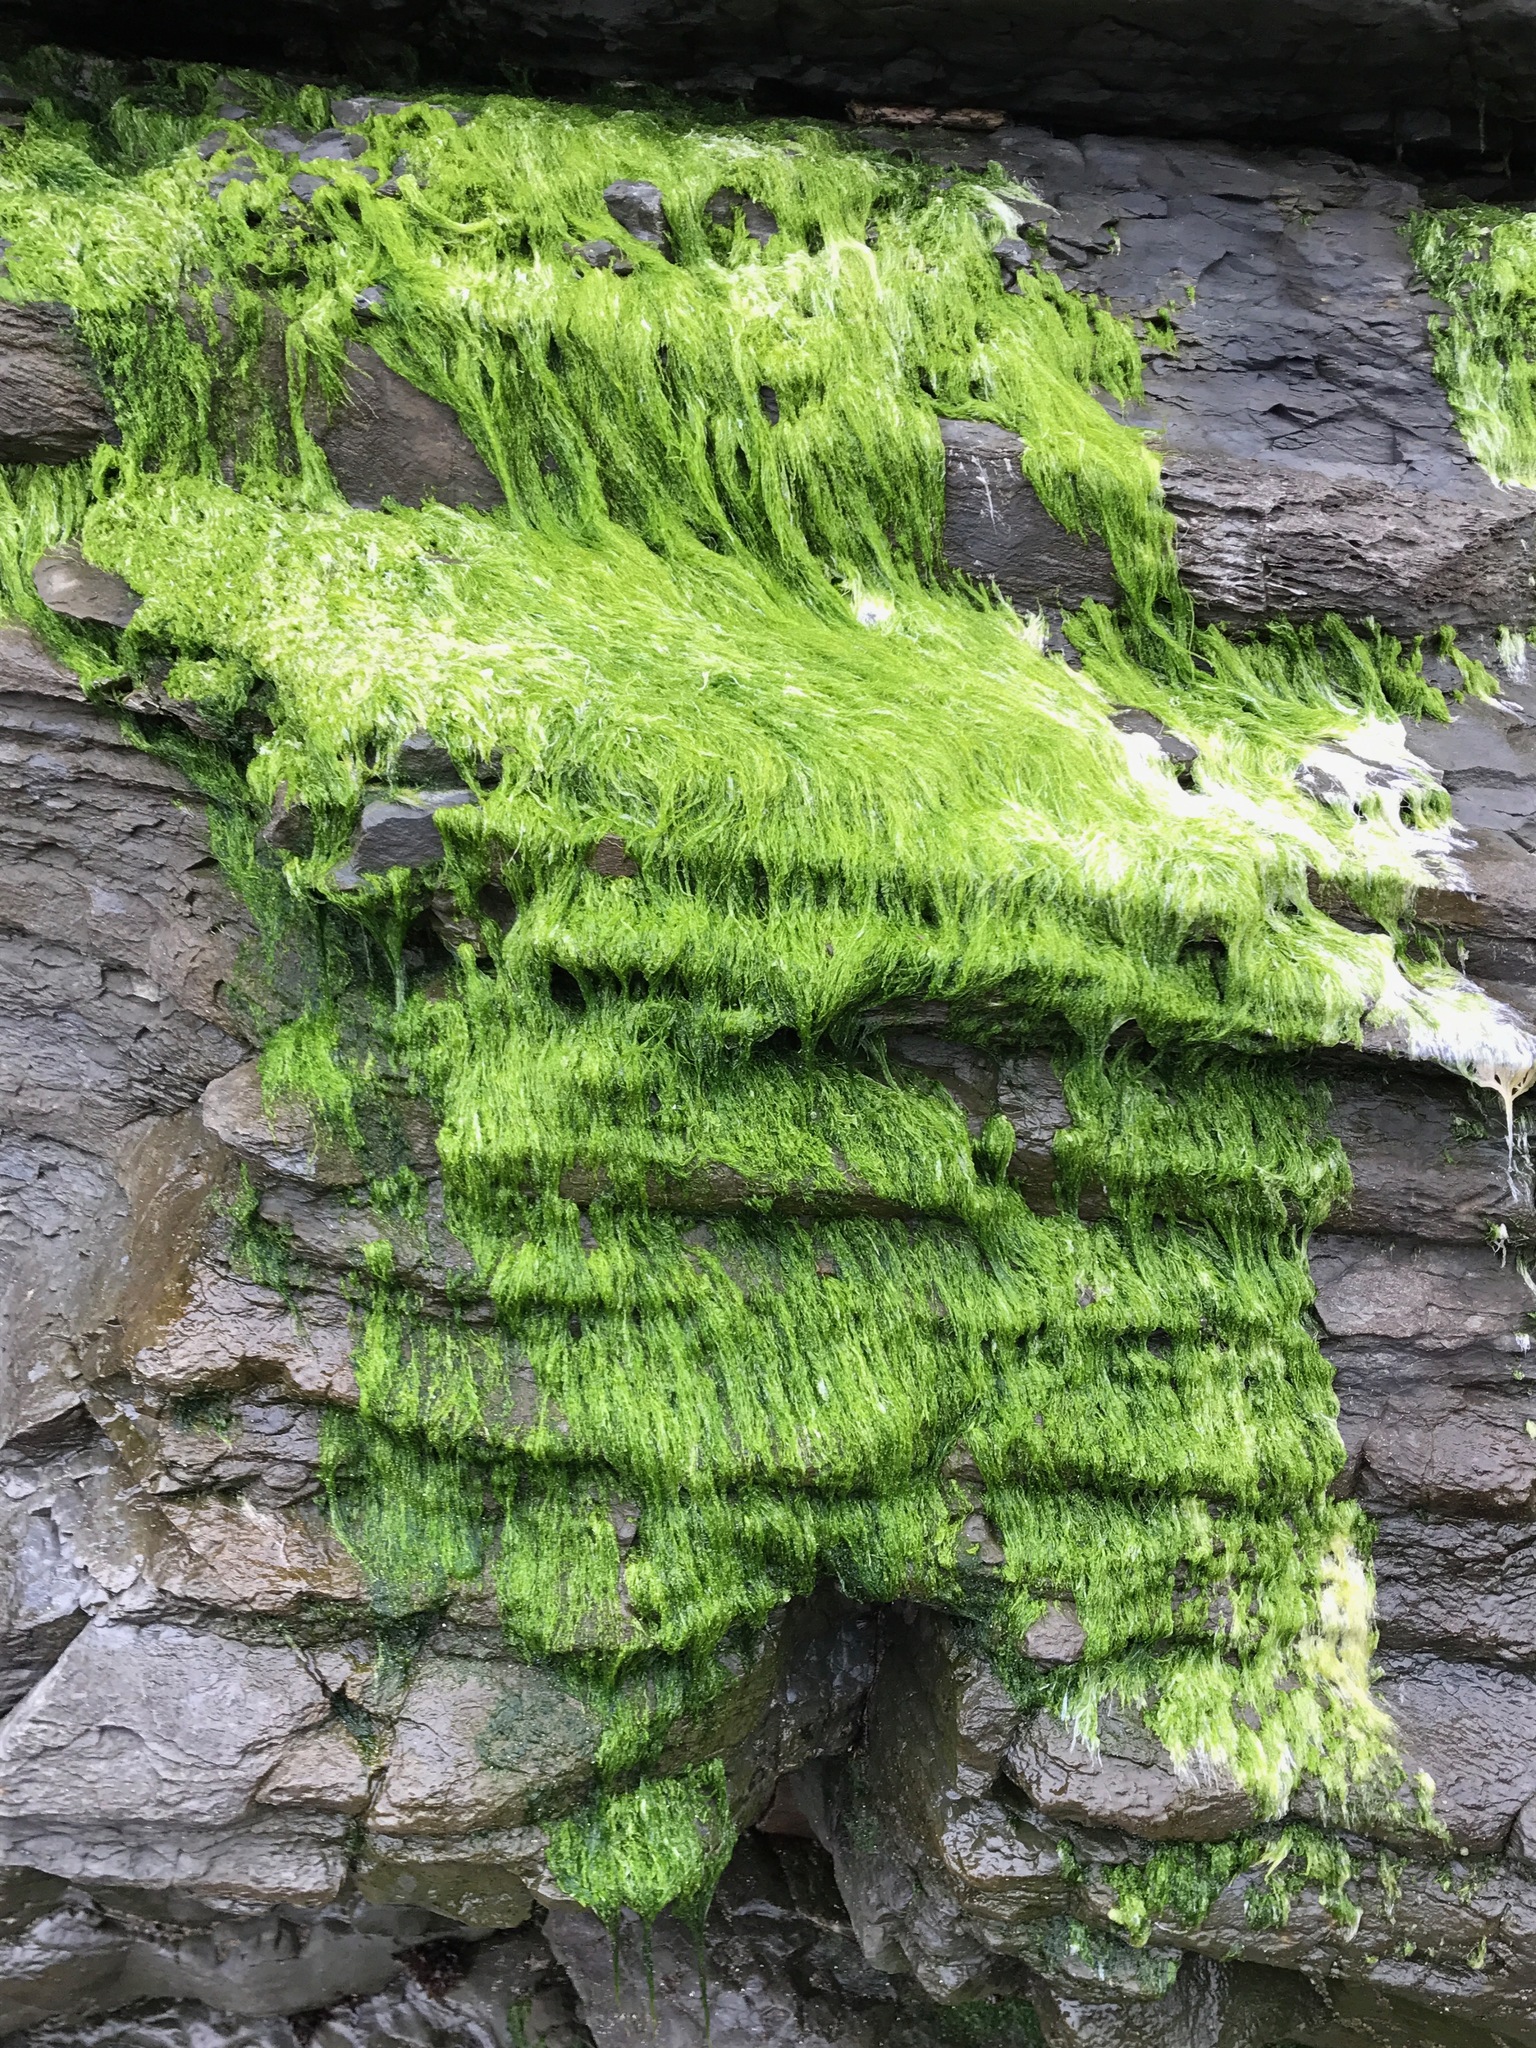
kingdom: Plantae
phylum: Chlorophyta
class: Ulvophyceae
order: Ulvales
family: Ulvaceae
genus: Ulva
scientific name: Ulva intestinalis
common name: Gut weed
